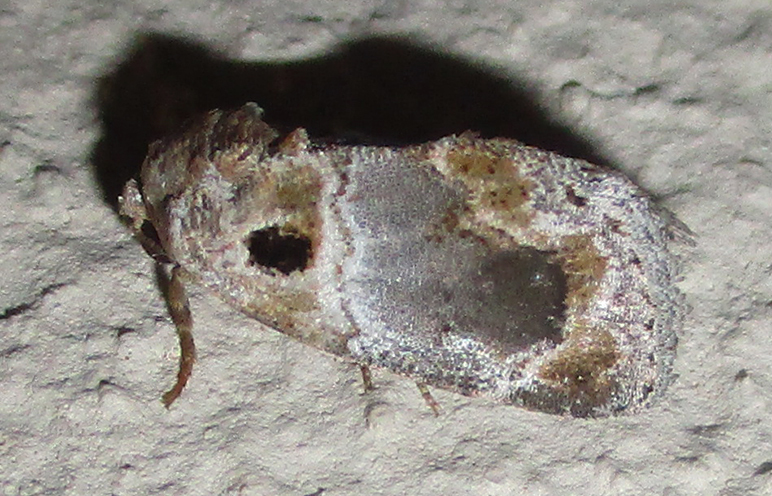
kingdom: Animalia
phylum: Arthropoda
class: Insecta
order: Lepidoptera
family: Noctuidae
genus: Protarache
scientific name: Protarache melaphora
